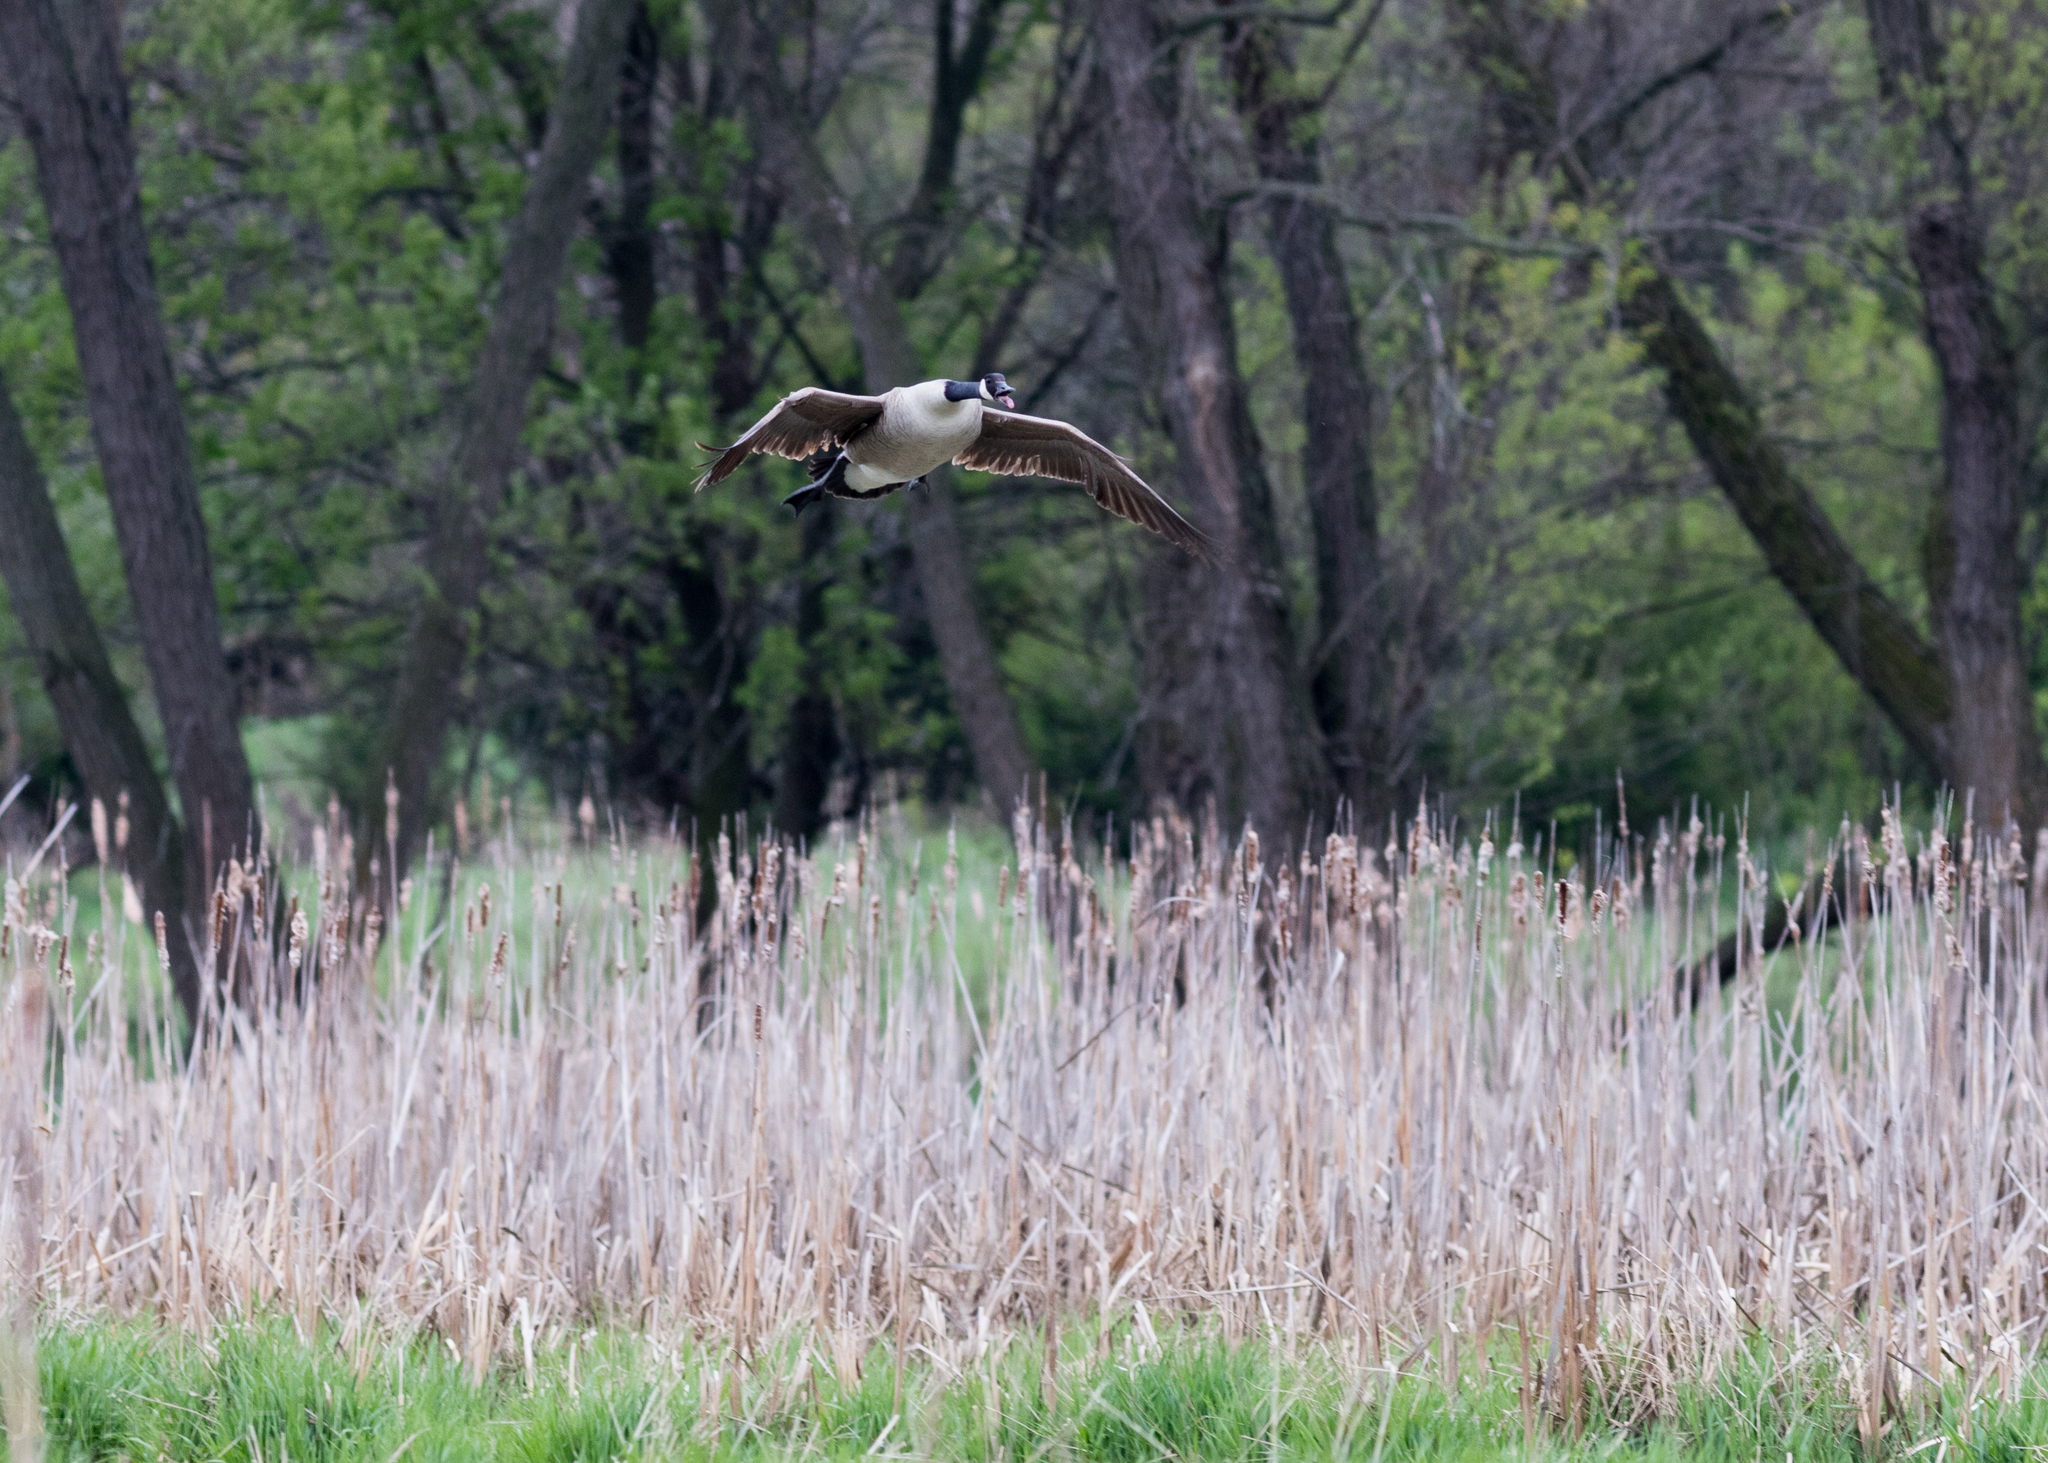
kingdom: Animalia
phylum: Chordata
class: Aves
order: Anseriformes
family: Anatidae
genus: Branta
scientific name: Branta canadensis
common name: Canada goose
